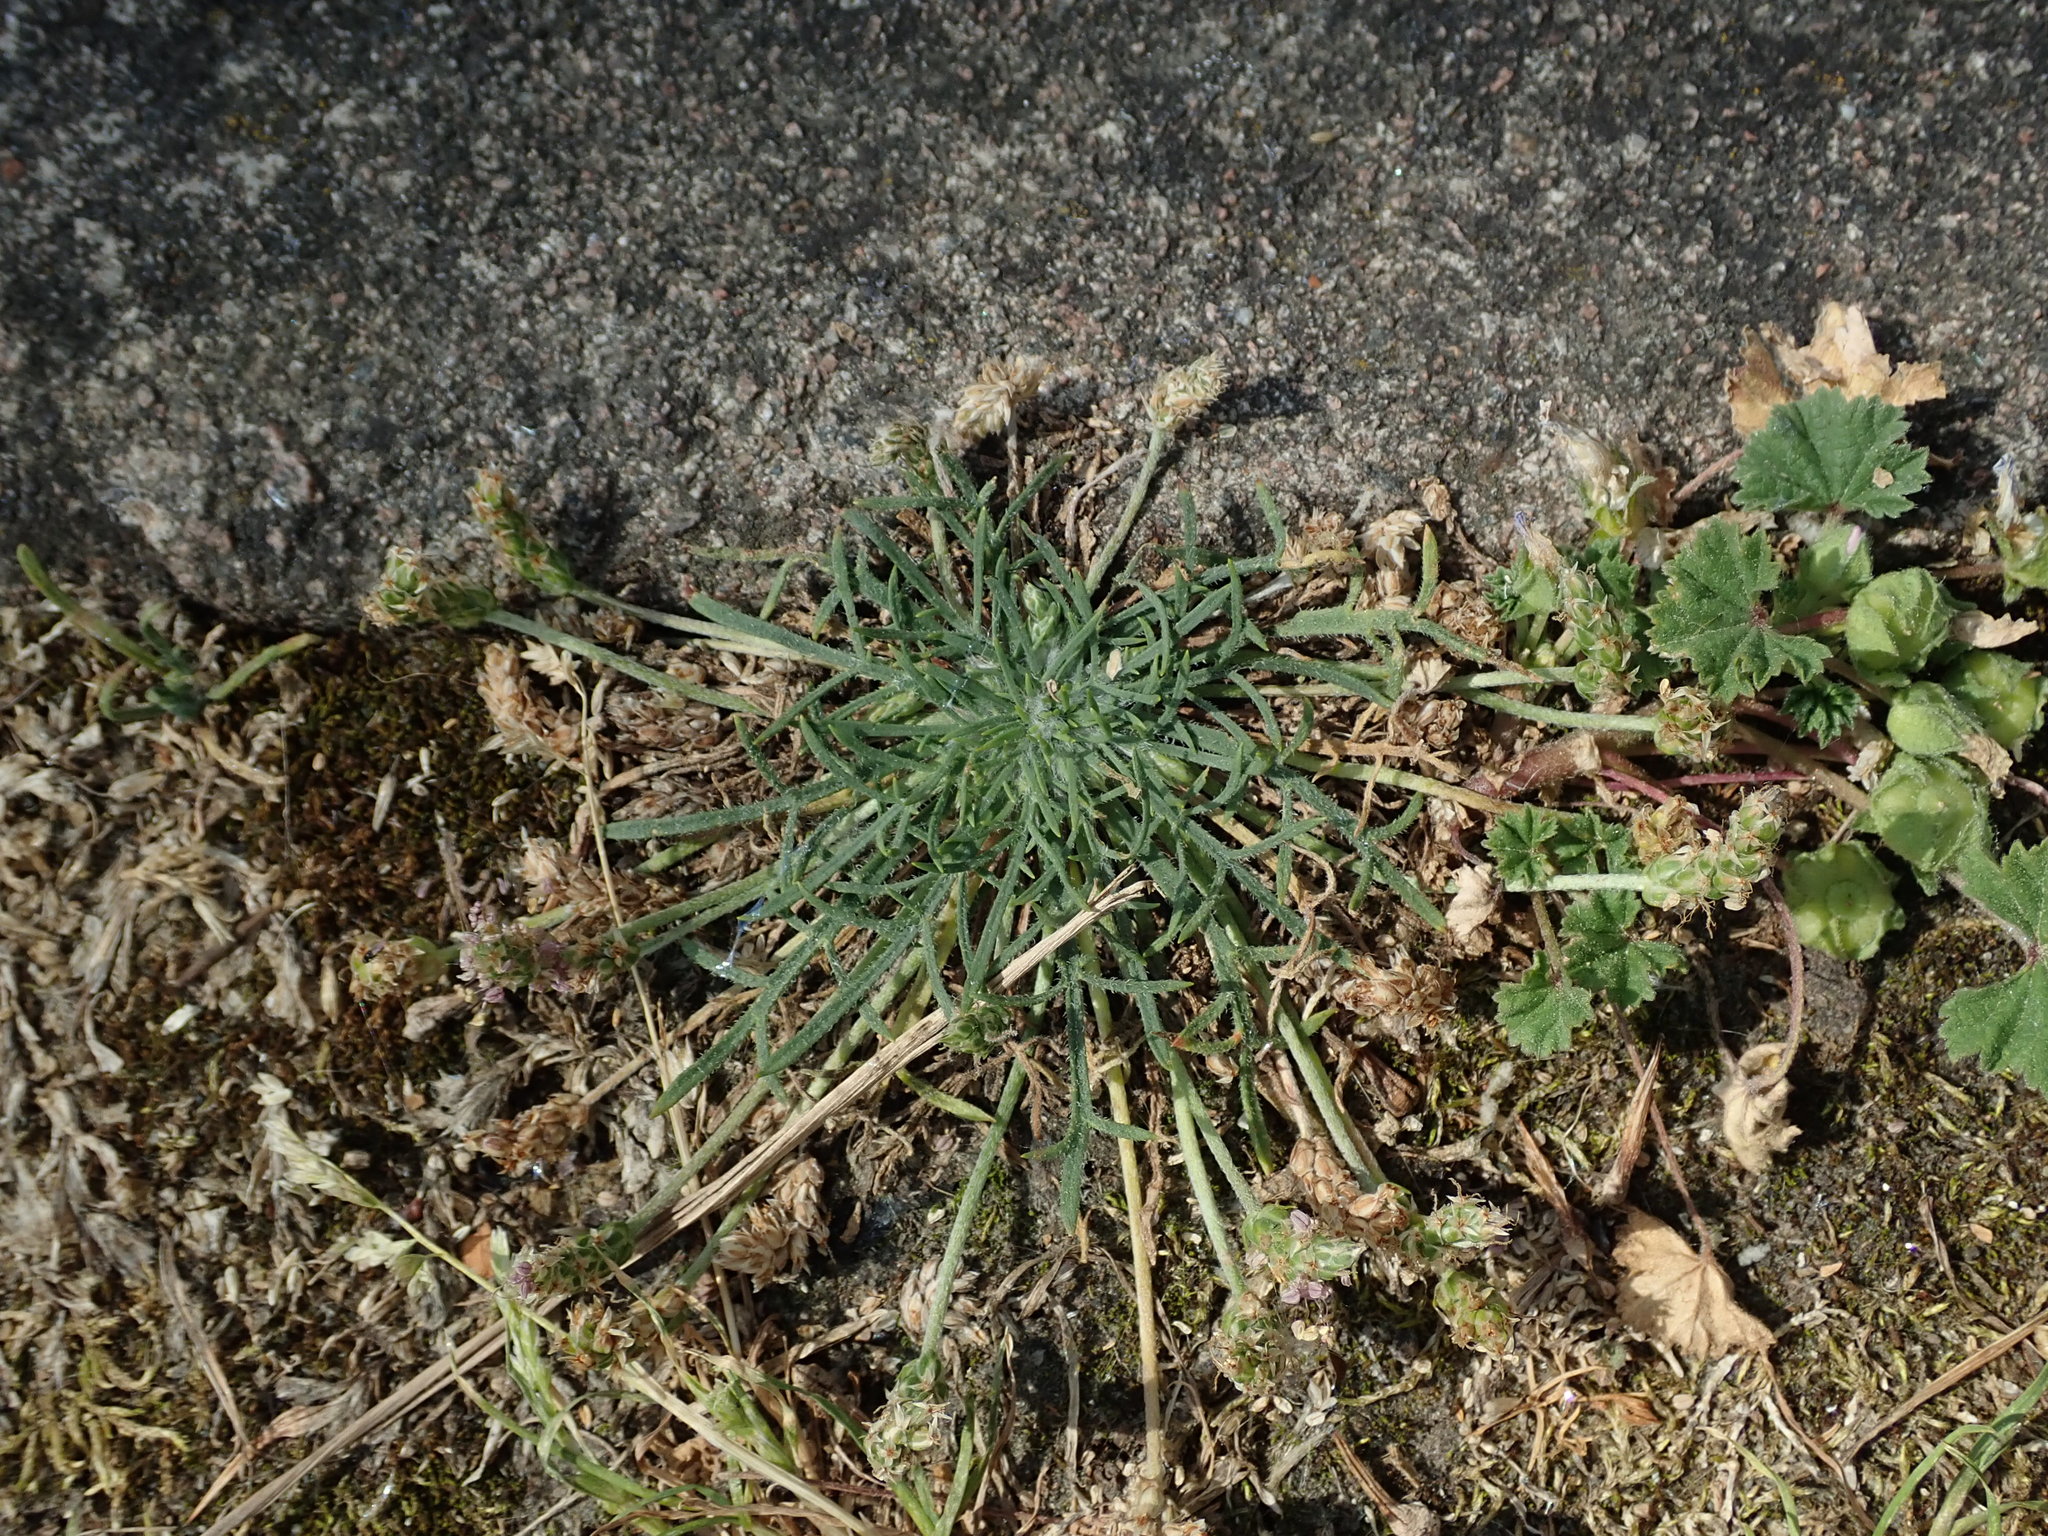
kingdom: Plantae
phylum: Tracheophyta
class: Magnoliopsida
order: Lamiales
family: Plantaginaceae
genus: Plantago
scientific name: Plantago coronopus
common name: Buck's-horn plantain
